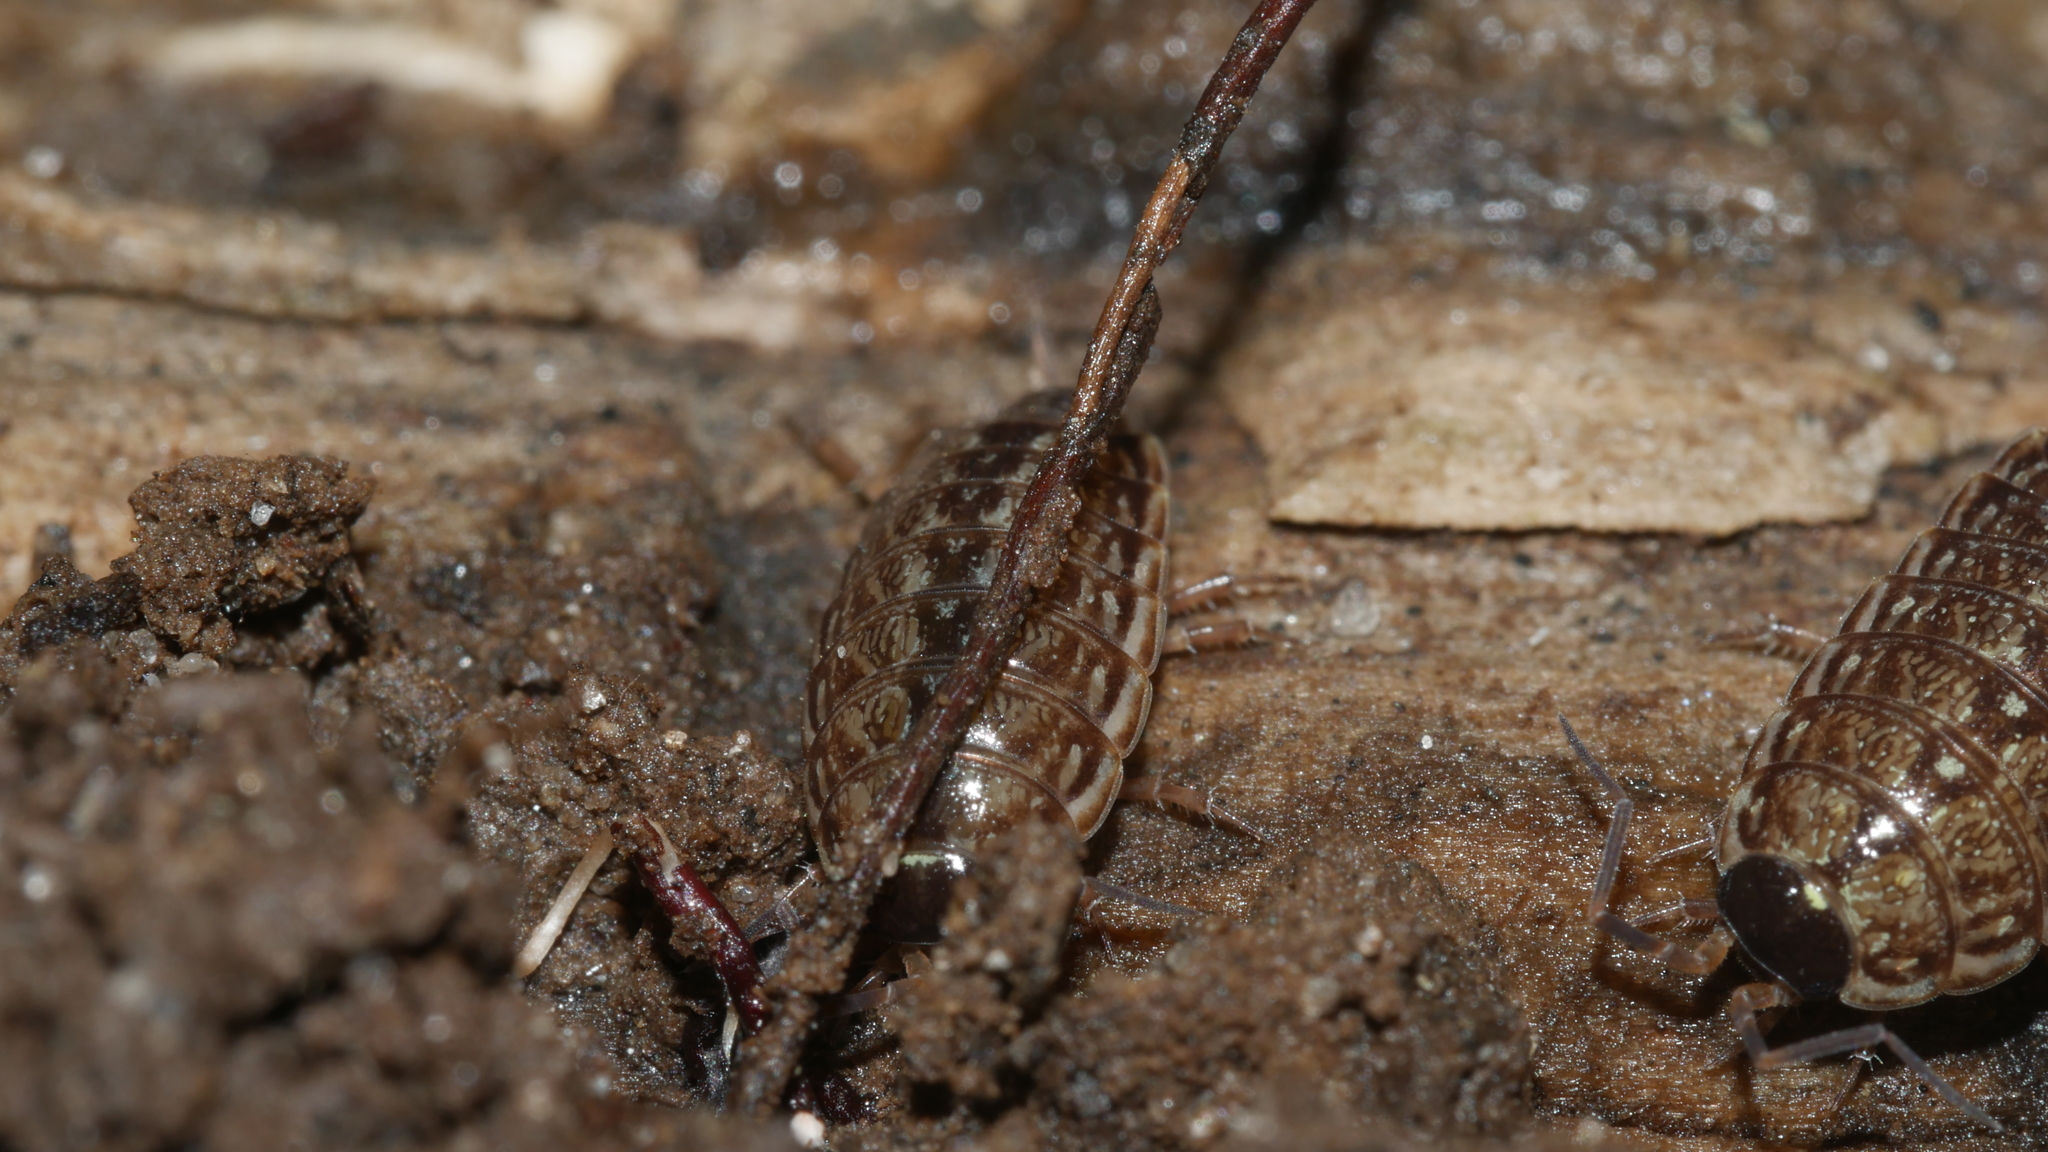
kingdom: Animalia
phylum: Arthropoda
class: Malacostraca
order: Isopoda
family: Philosciidae
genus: Philoscia
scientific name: Philoscia muscorum
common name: Common striped woodlouse
